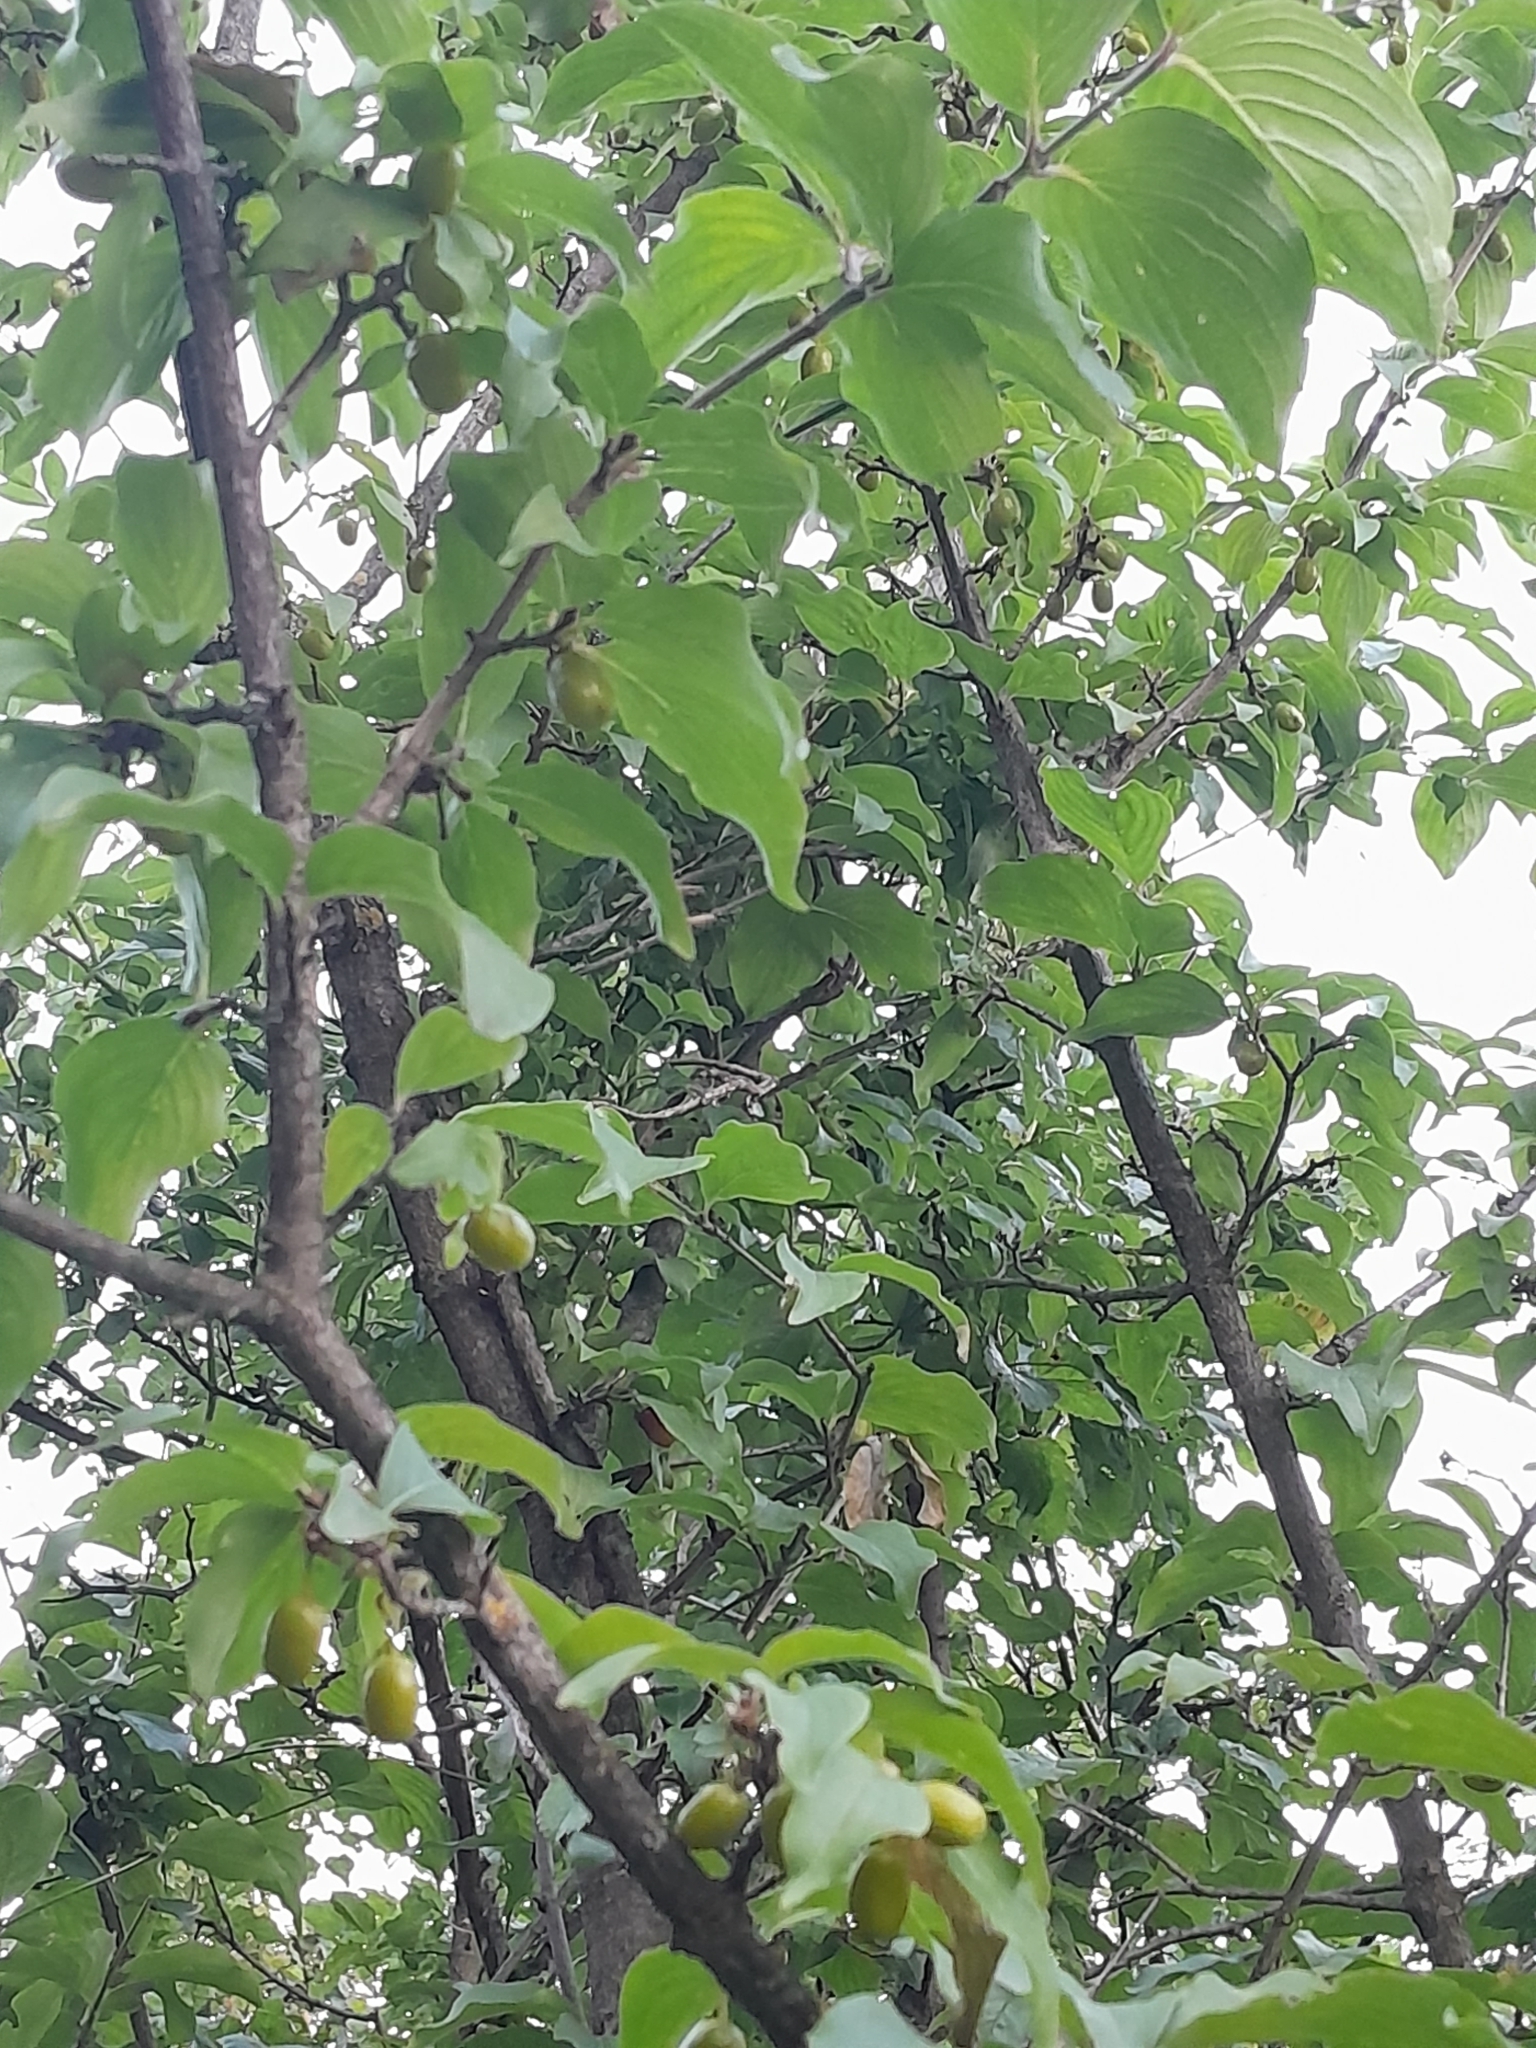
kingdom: Plantae
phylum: Tracheophyta
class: Magnoliopsida
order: Cornales
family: Cornaceae
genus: Cornus
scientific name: Cornus mas
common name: Cornelian-cherry
